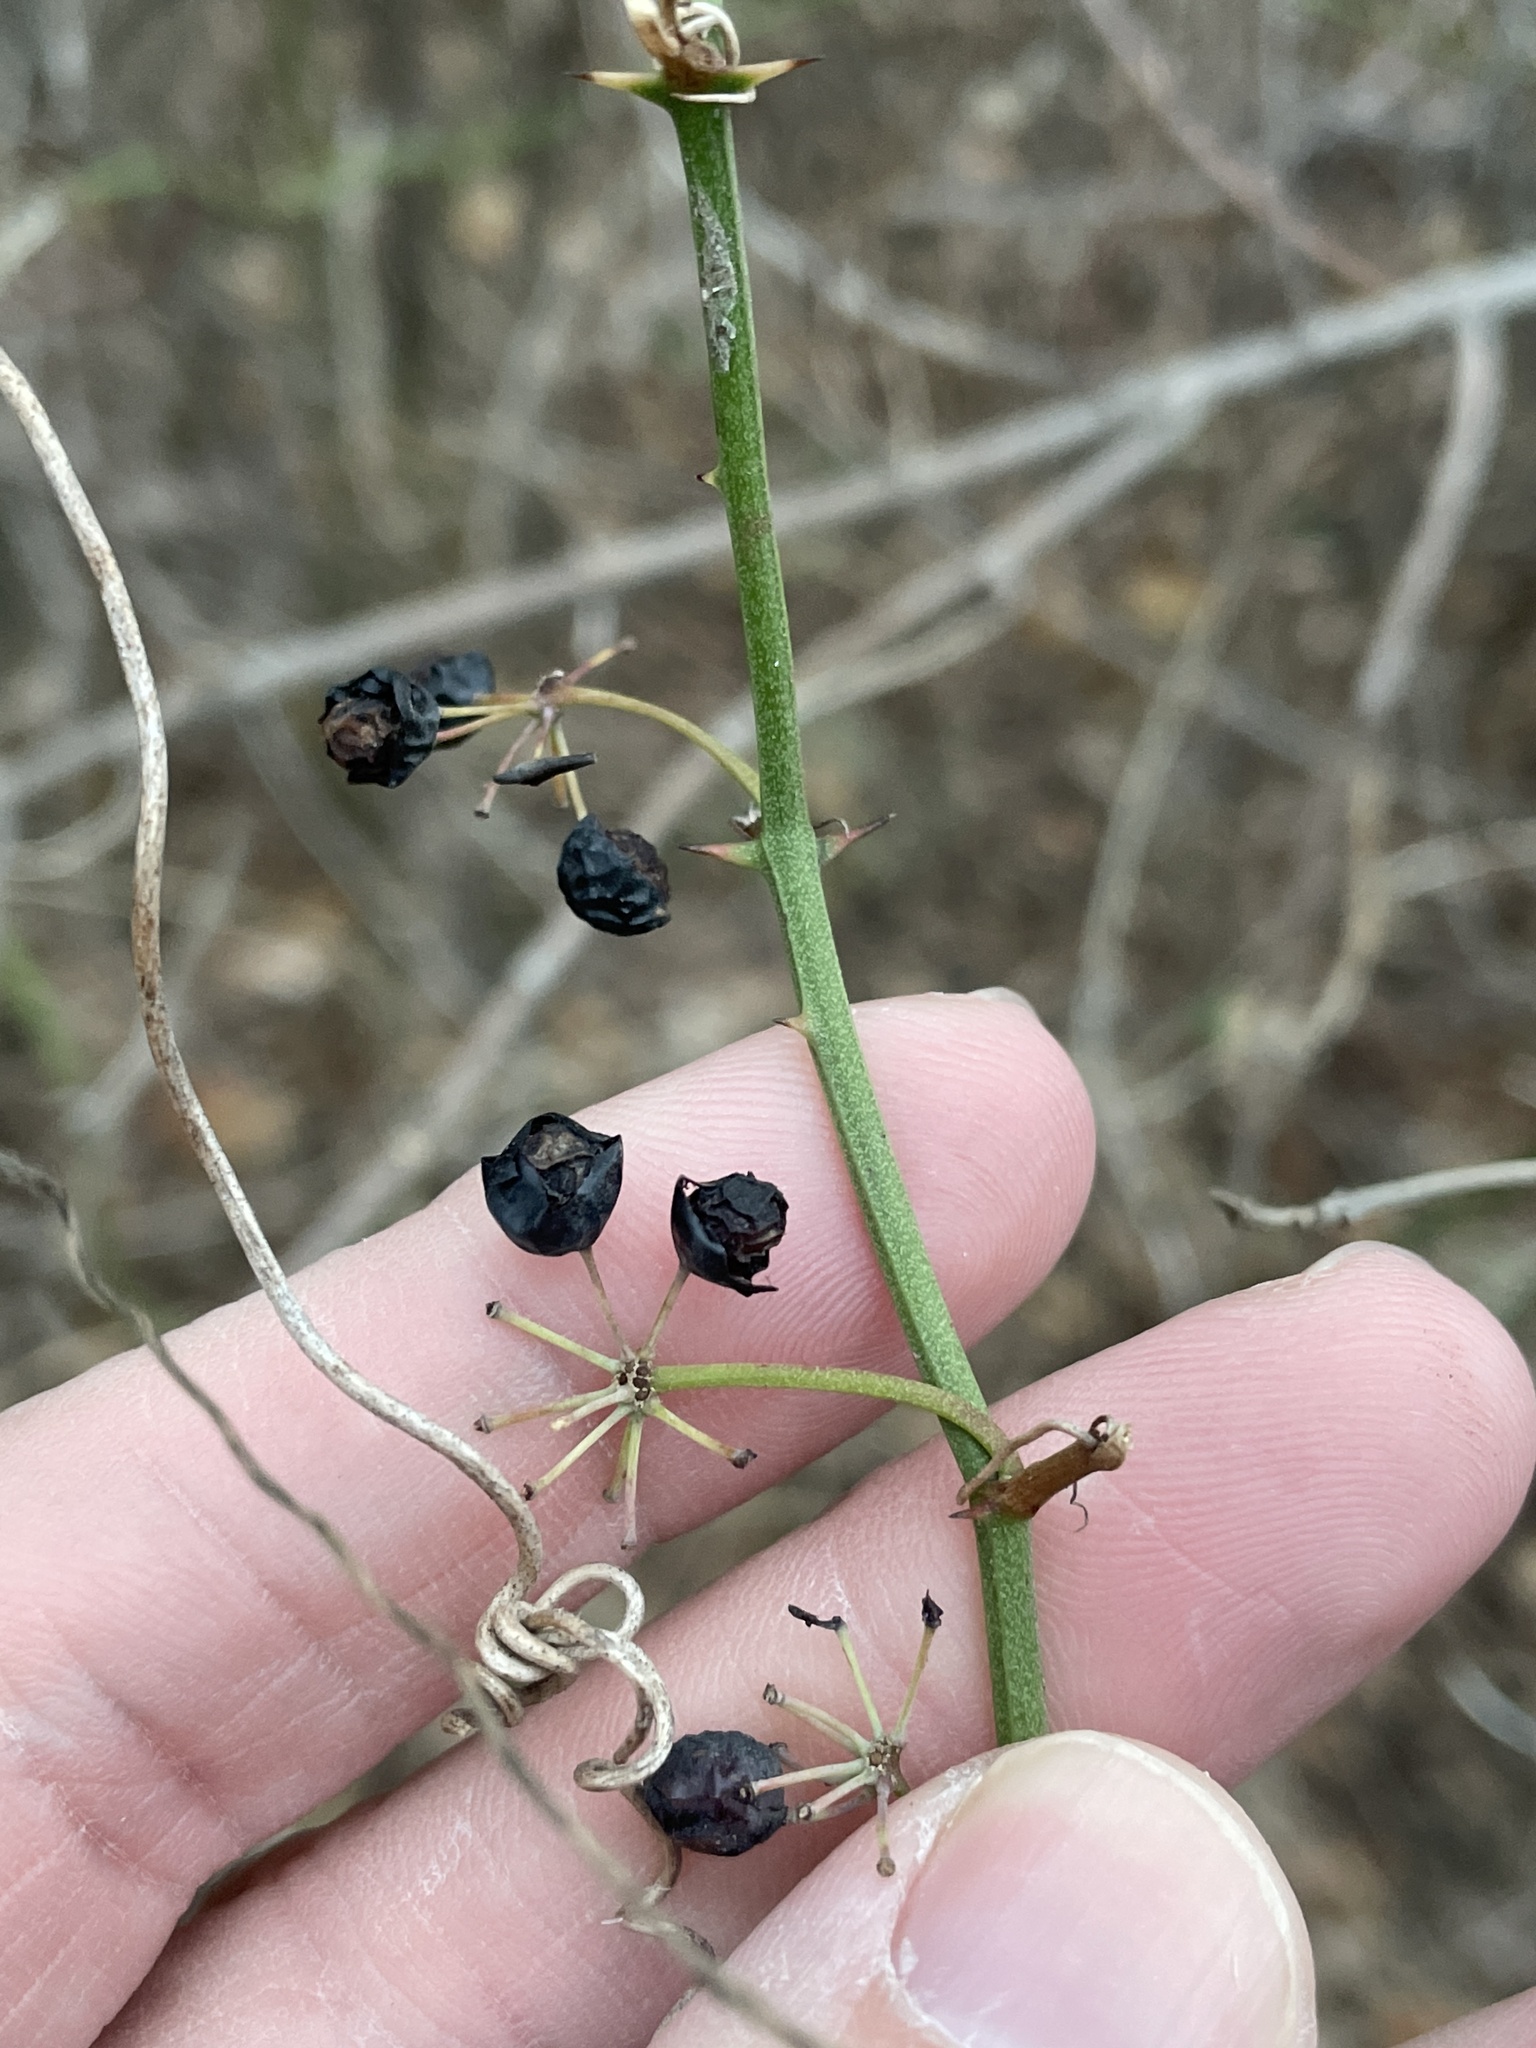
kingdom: Plantae
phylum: Tracheophyta
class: Liliopsida
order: Liliales
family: Smilacaceae
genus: Smilax
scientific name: Smilax bona-nox
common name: Catbrier
